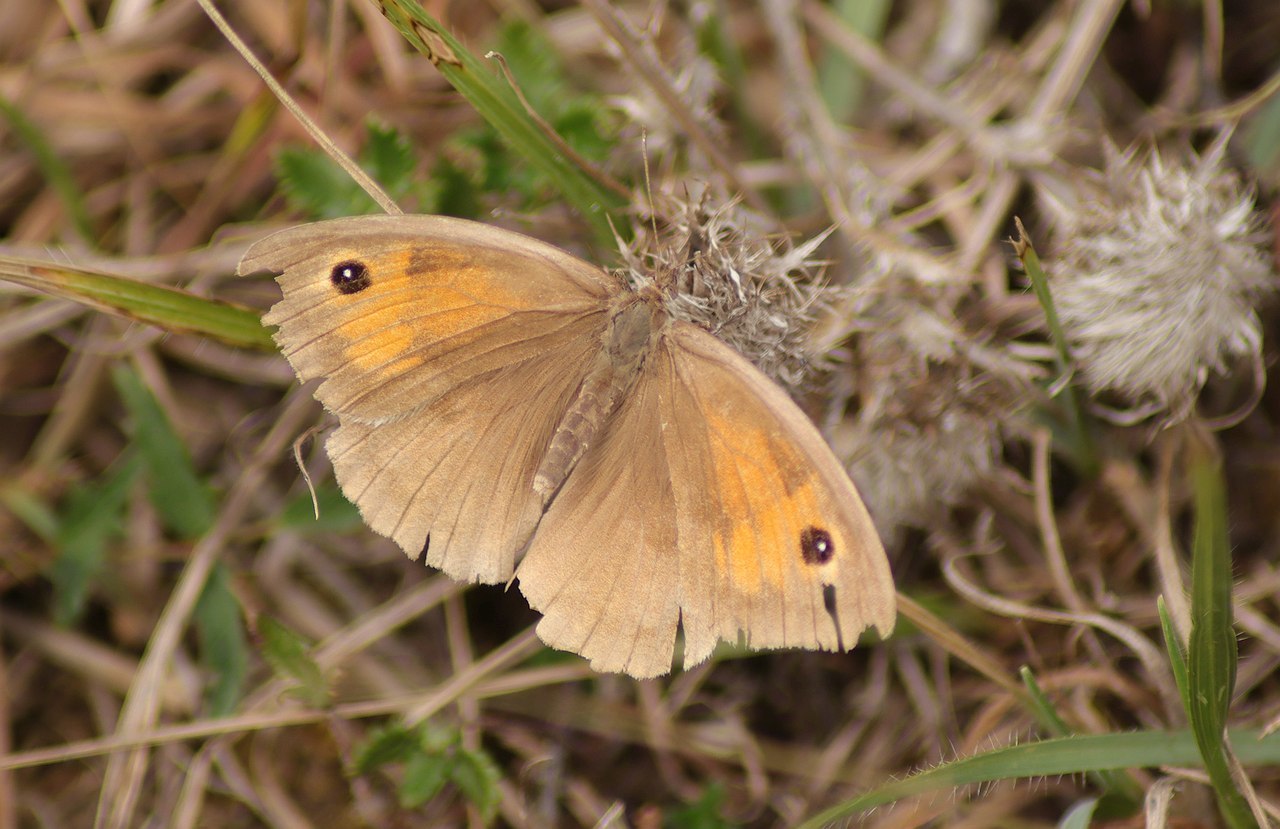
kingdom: Animalia
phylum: Arthropoda
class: Insecta
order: Lepidoptera
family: Nymphalidae
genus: Maniola
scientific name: Maniola jurtina
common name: Meadow brown
